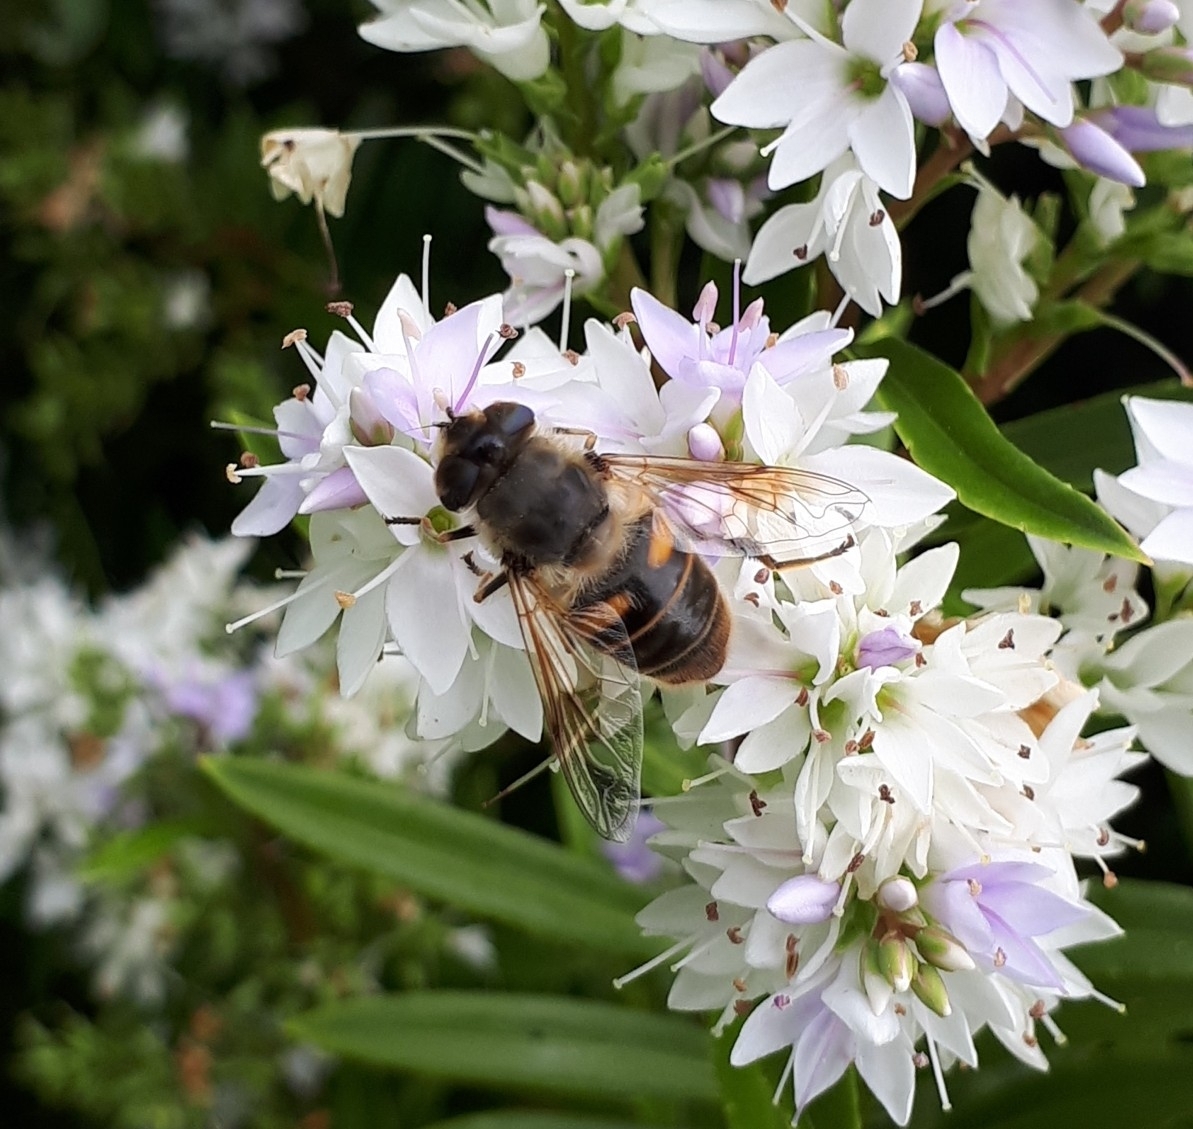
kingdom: Animalia
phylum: Arthropoda
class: Insecta
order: Diptera
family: Syrphidae
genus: Eristalis
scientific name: Eristalis tenax
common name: Drone fly
